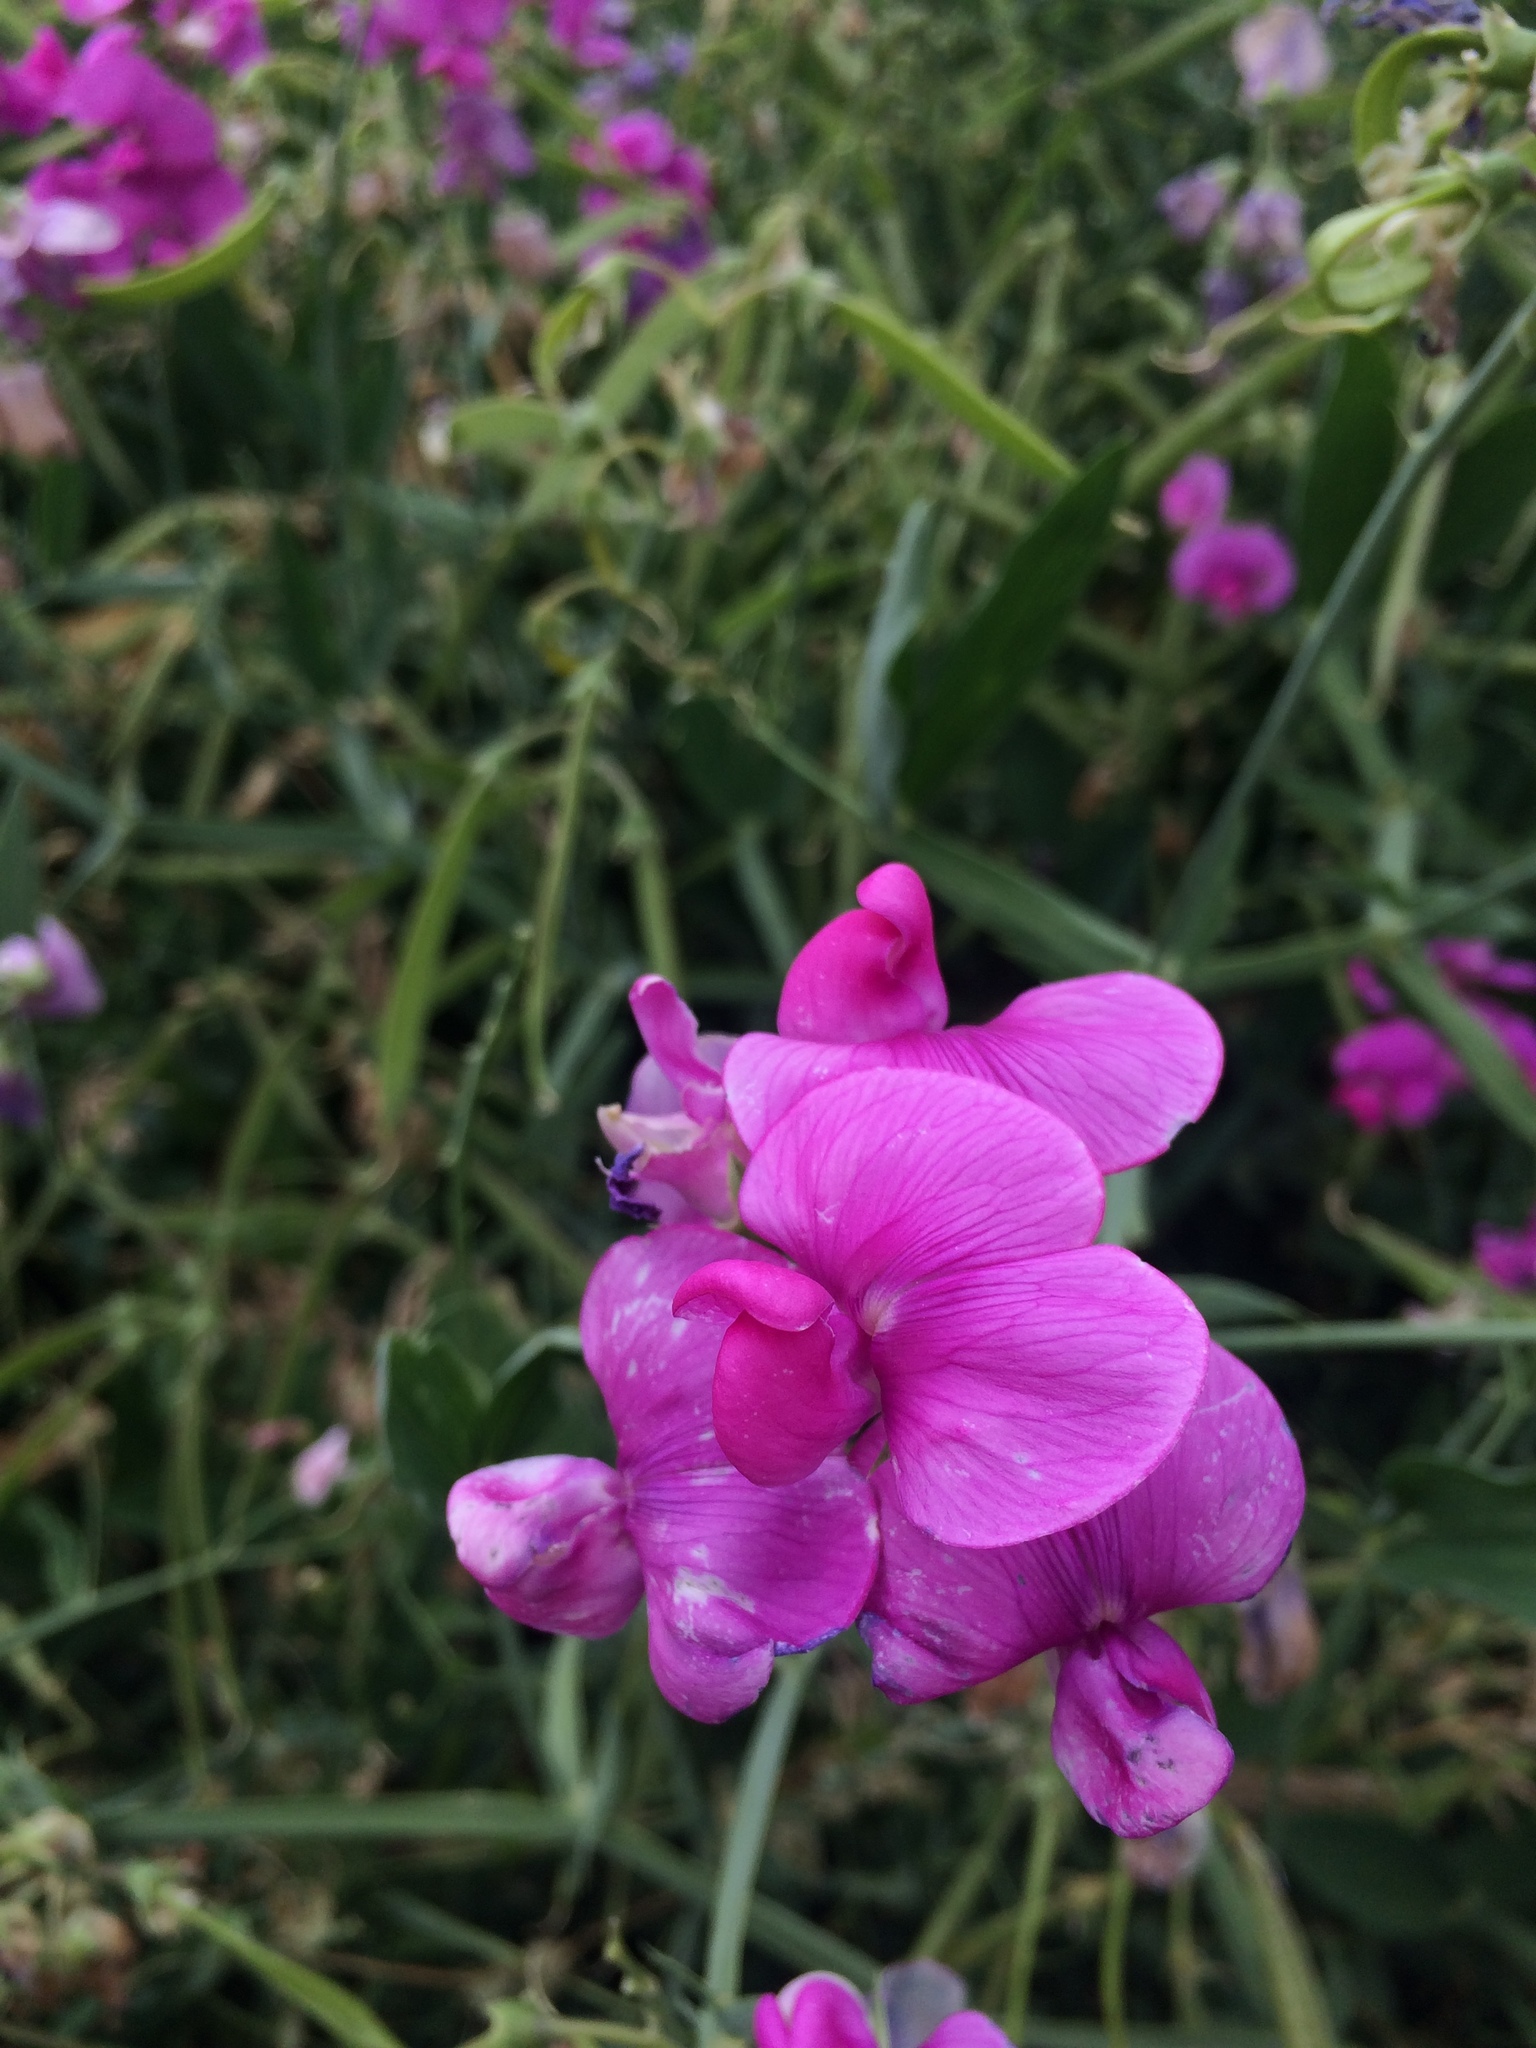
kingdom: Plantae
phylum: Tracheophyta
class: Magnoliopsida
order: Fabales
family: Fabaceae
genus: Lathyrus
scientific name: Lathyrus latifolius
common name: Perennial pea
